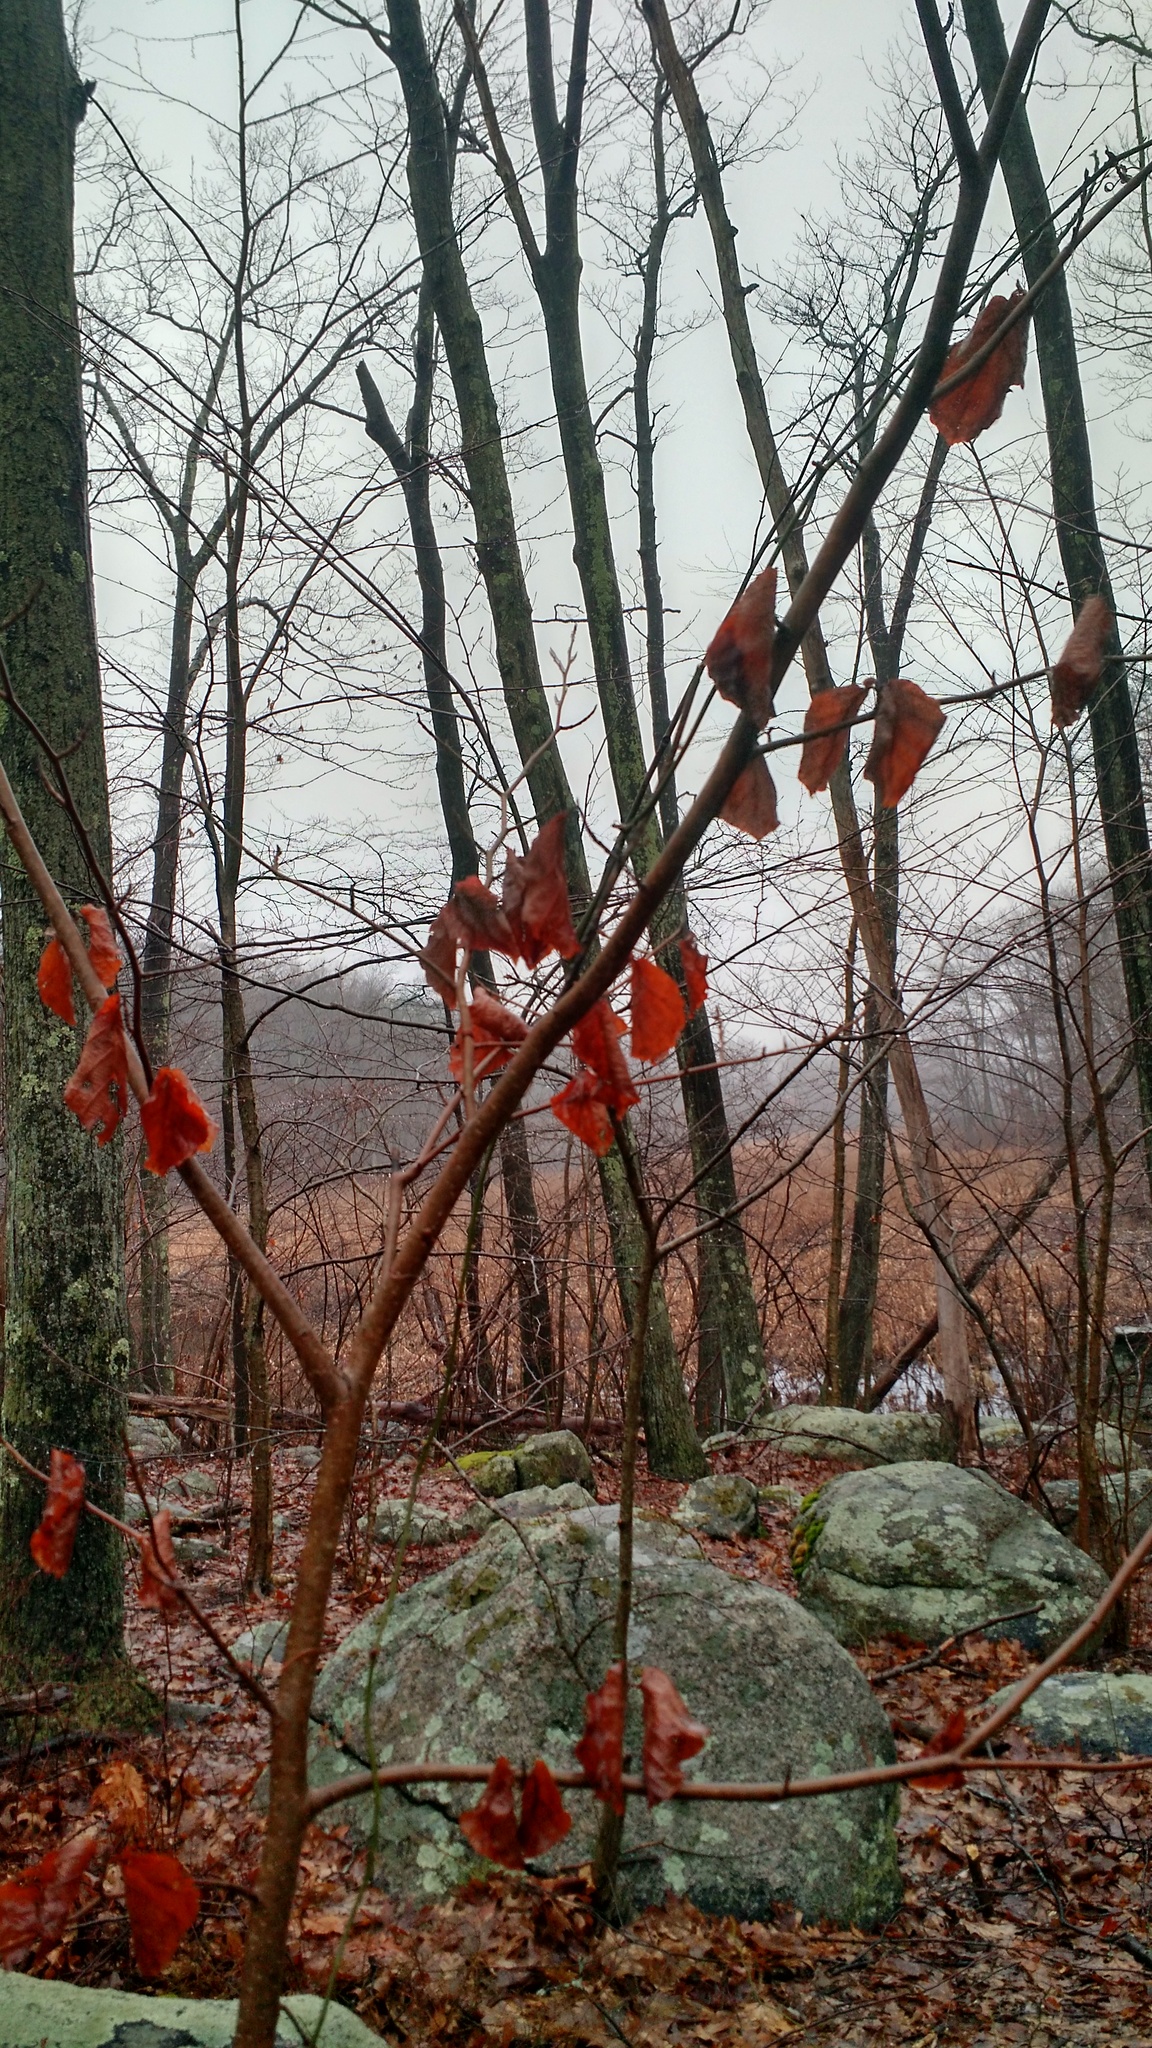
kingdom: Plantae
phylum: Tracheophyta
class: Magnoliopsida
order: Saxifragales
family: Hamamelidaceae
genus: Hamamelis
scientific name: Hamamelis virginiana
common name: Witch-hazel
